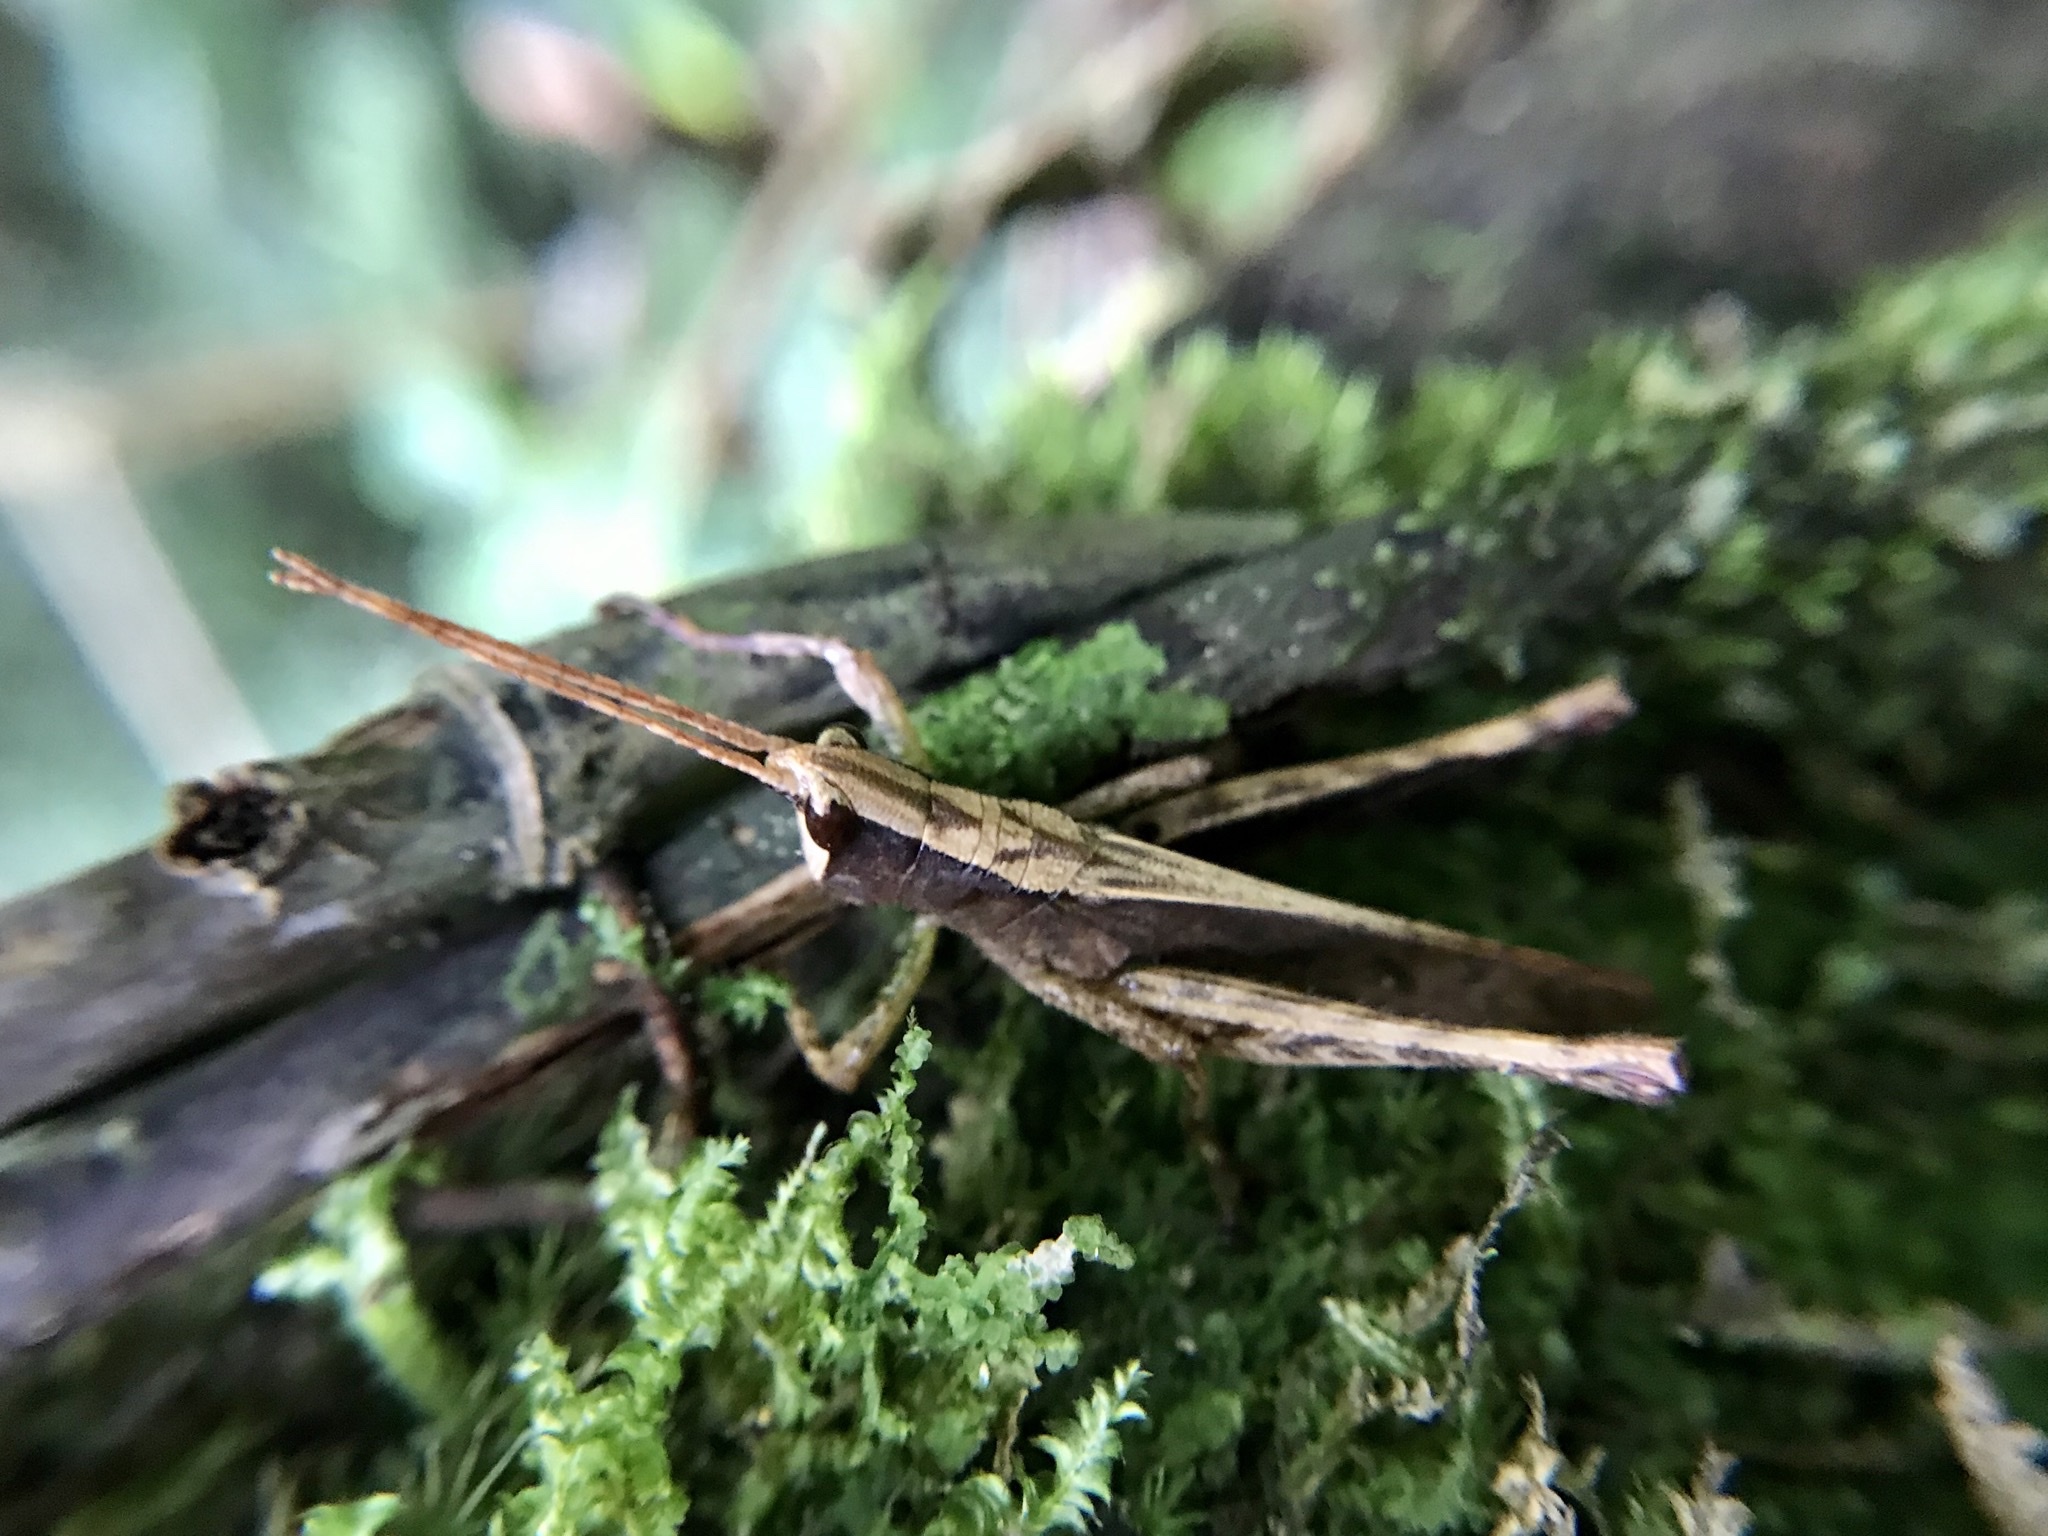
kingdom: Animalia
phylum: Arthropoda
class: Insecta
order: Orthoptera
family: Romaleidae
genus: Phaeoparia
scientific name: Phaeoparia depressicornis
